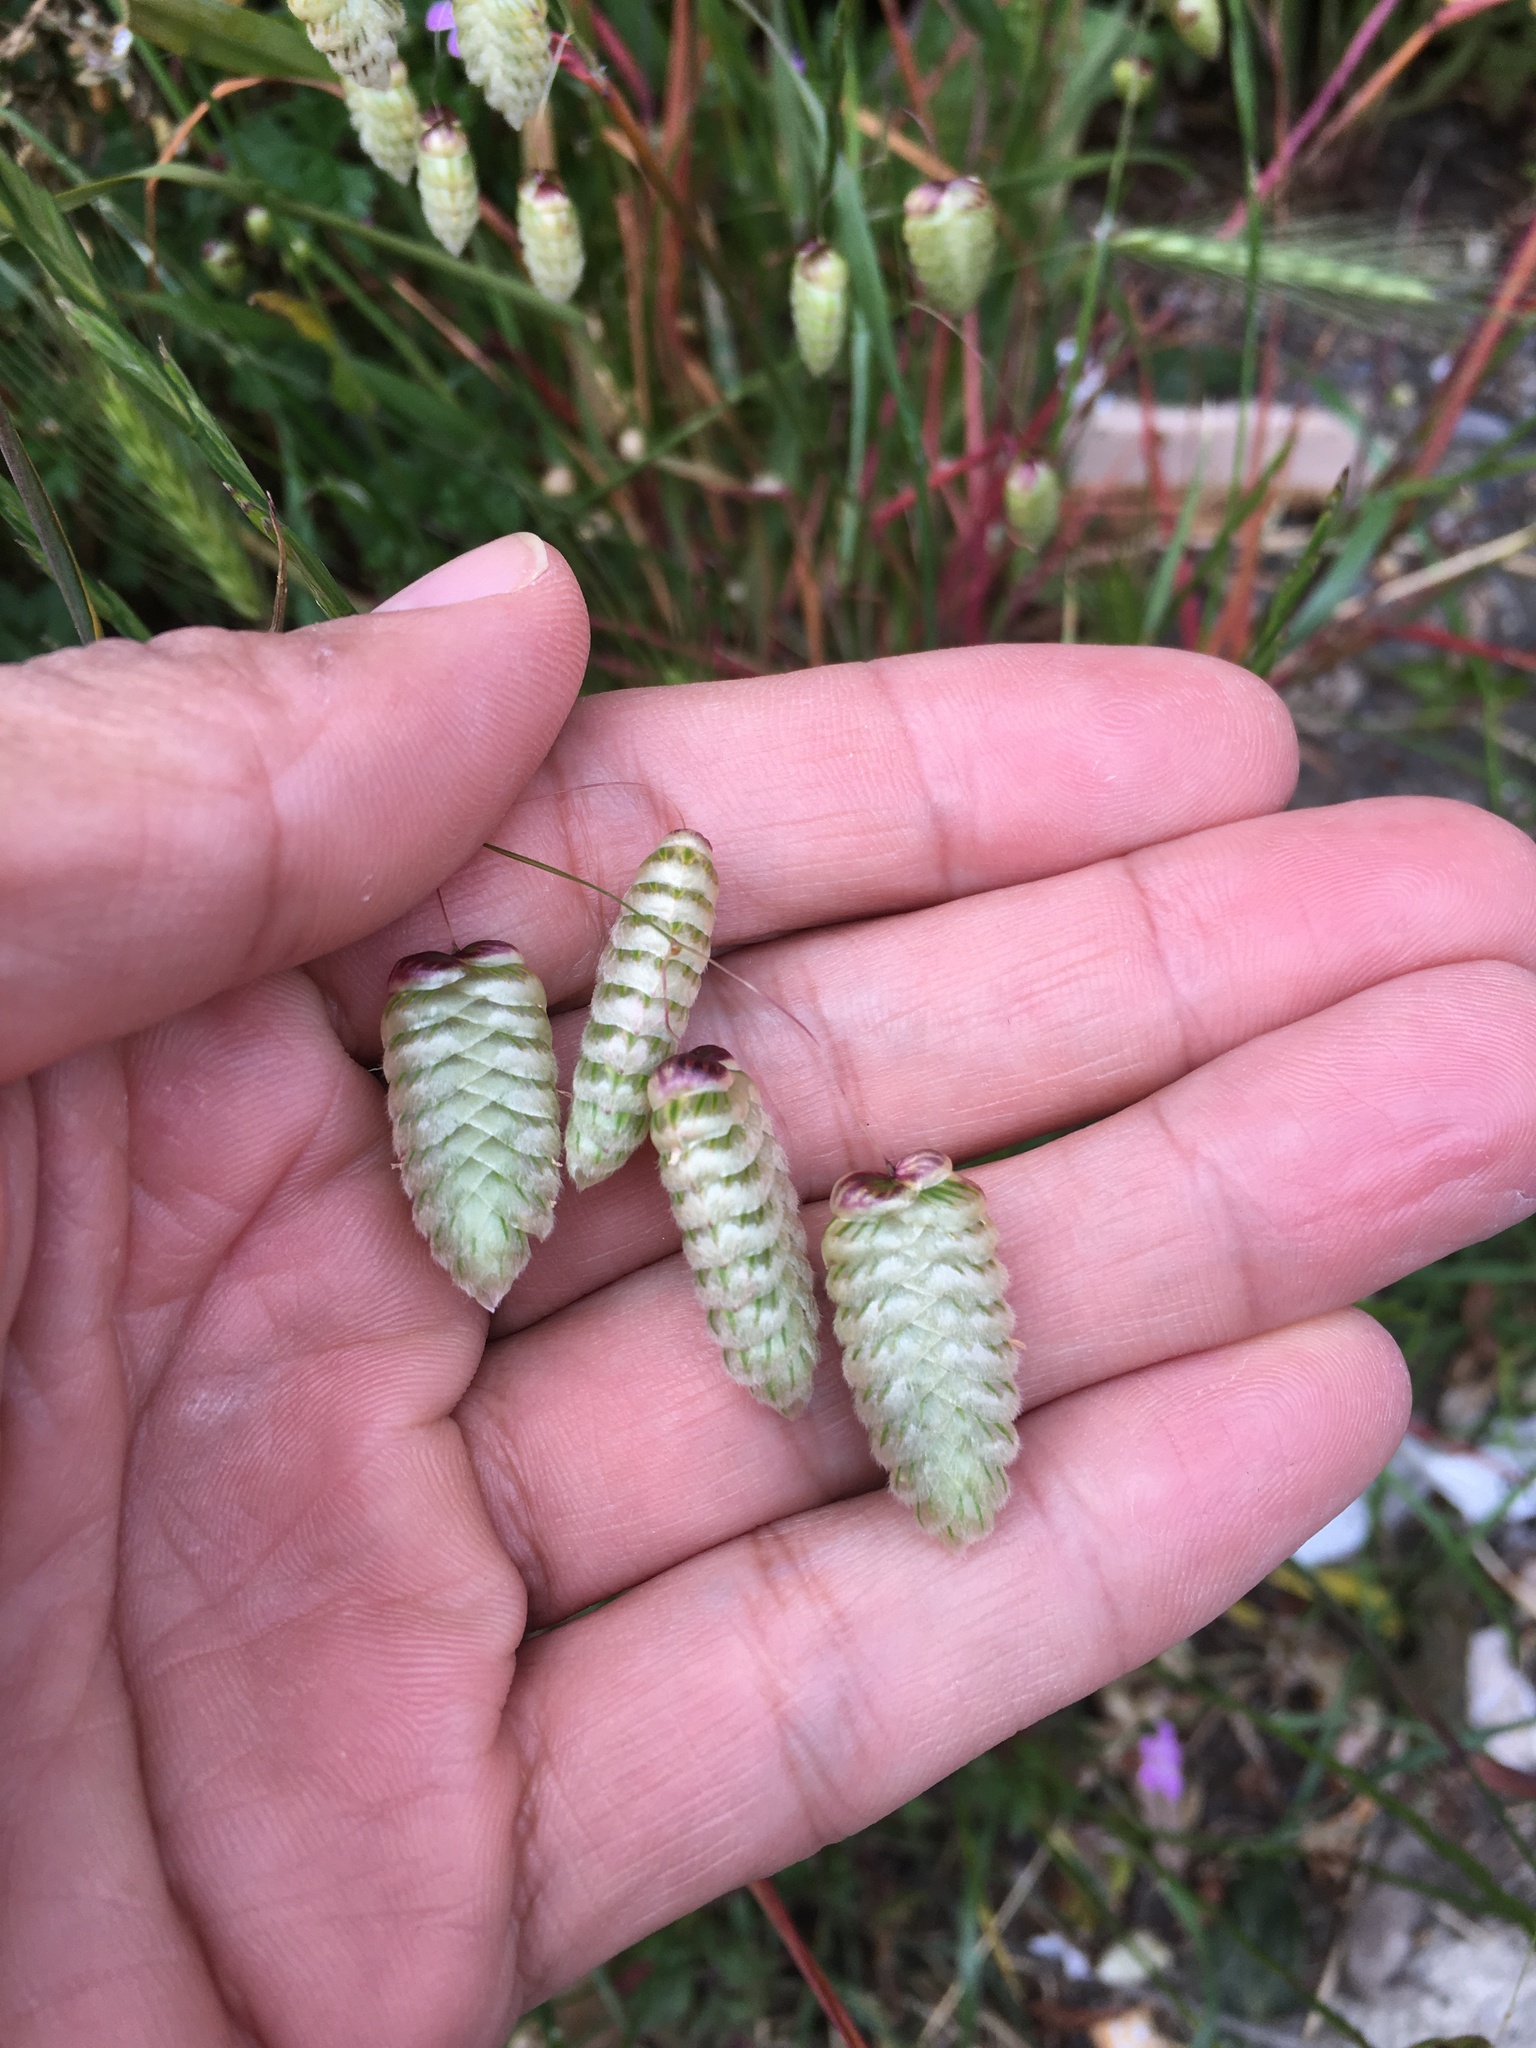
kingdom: Plantae
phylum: Tracheophyta
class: Liliopsida
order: Poales
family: Poaceae
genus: Briza
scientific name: Briza maxima
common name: Big quakinggrass
